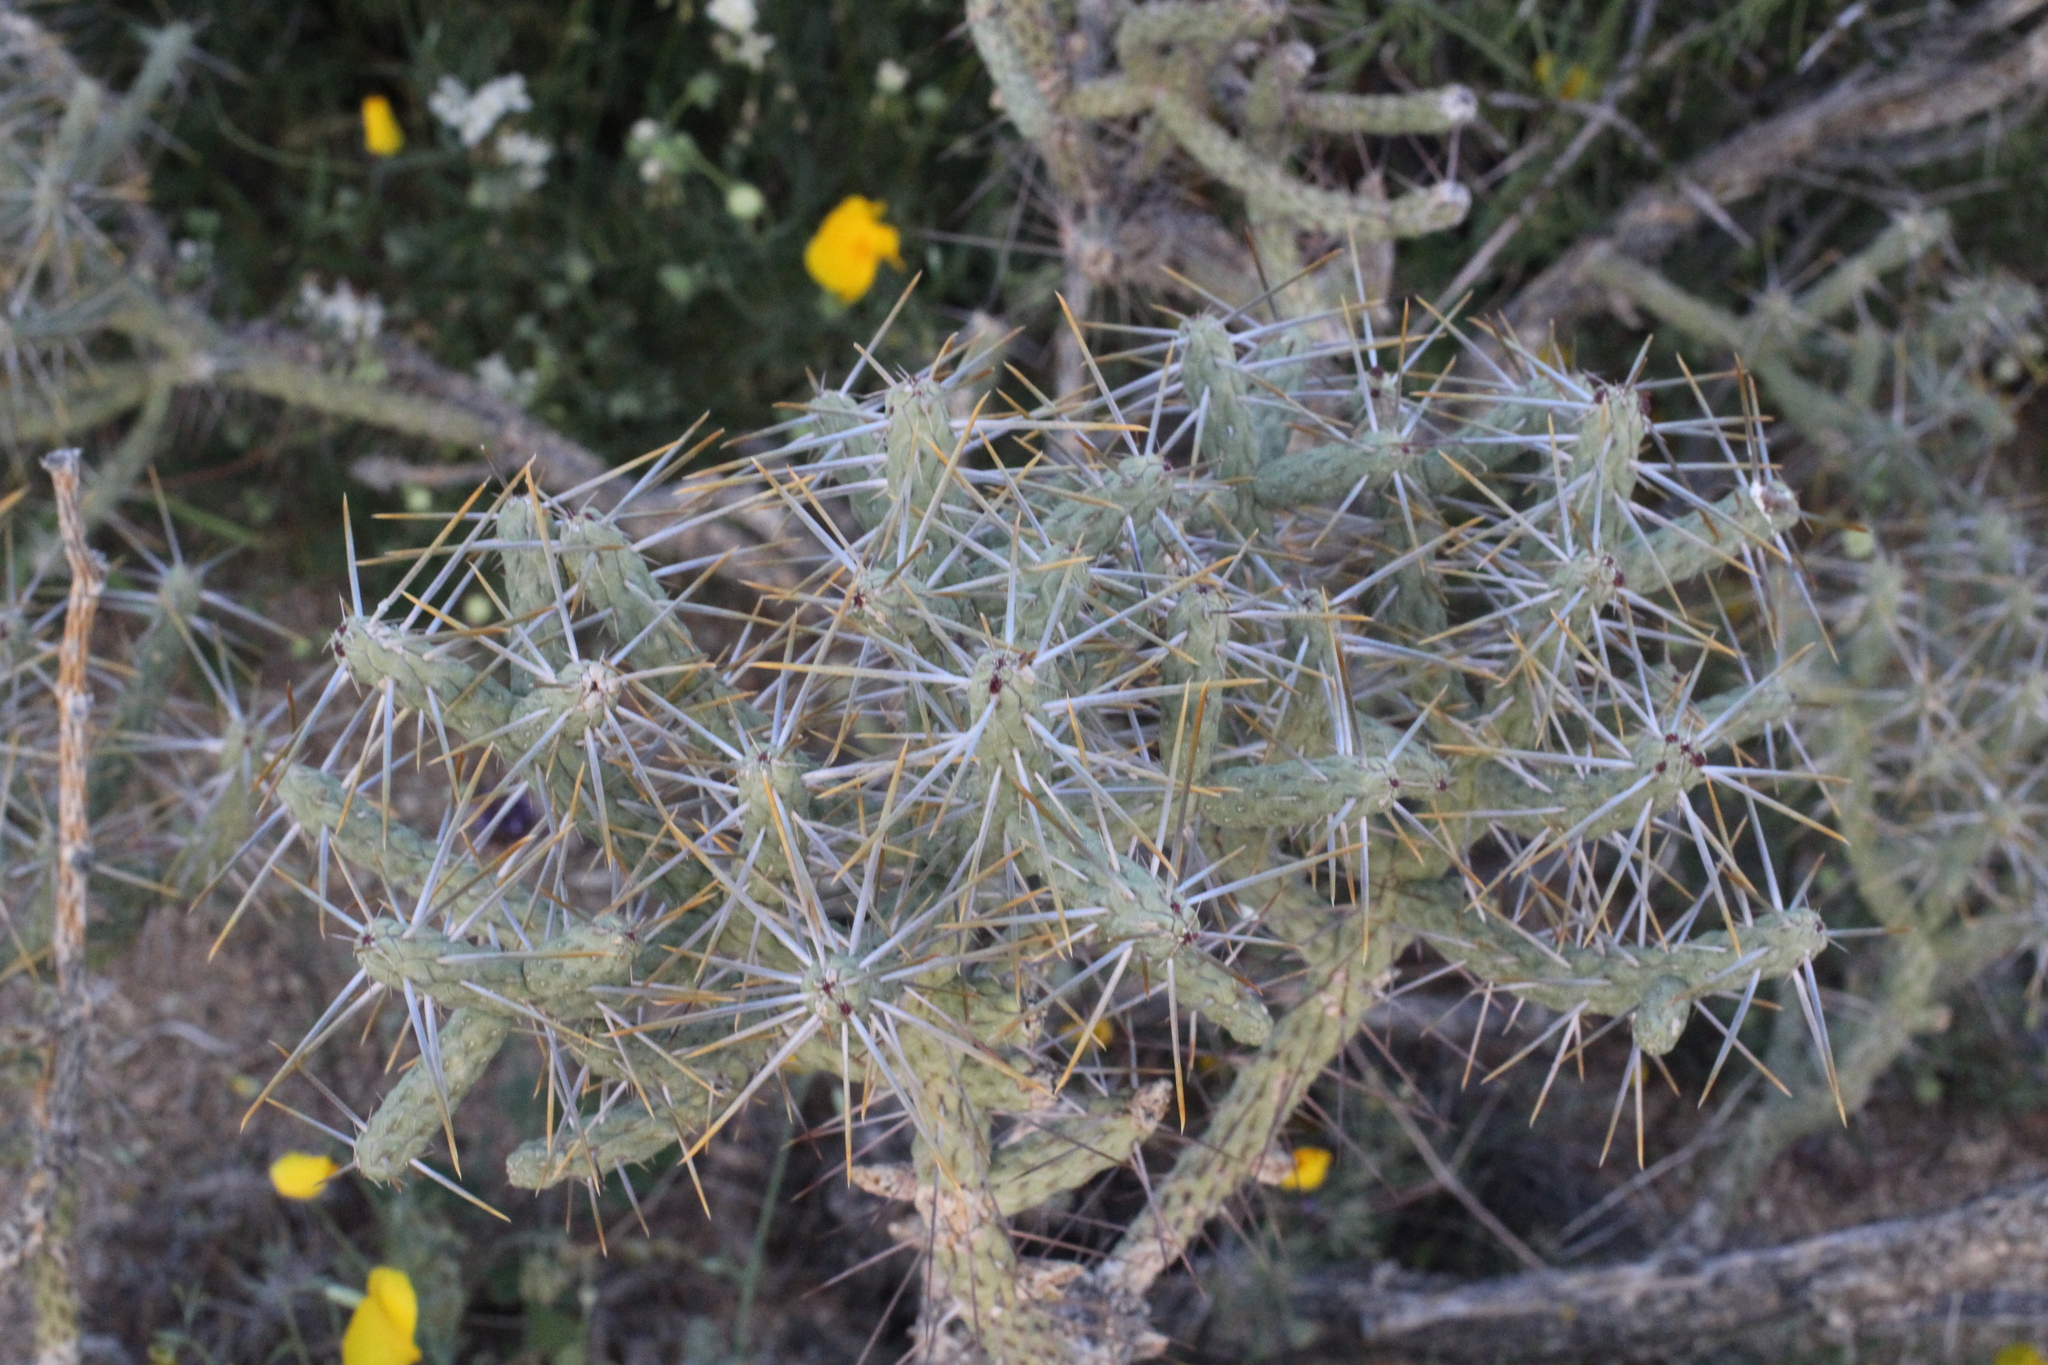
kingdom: Plantae
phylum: Tracheophyta
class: Magnoliopsida
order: Caryophyllales
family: Cactaceae
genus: Cylindropuntia
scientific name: Cylindropuntia ramosissima
